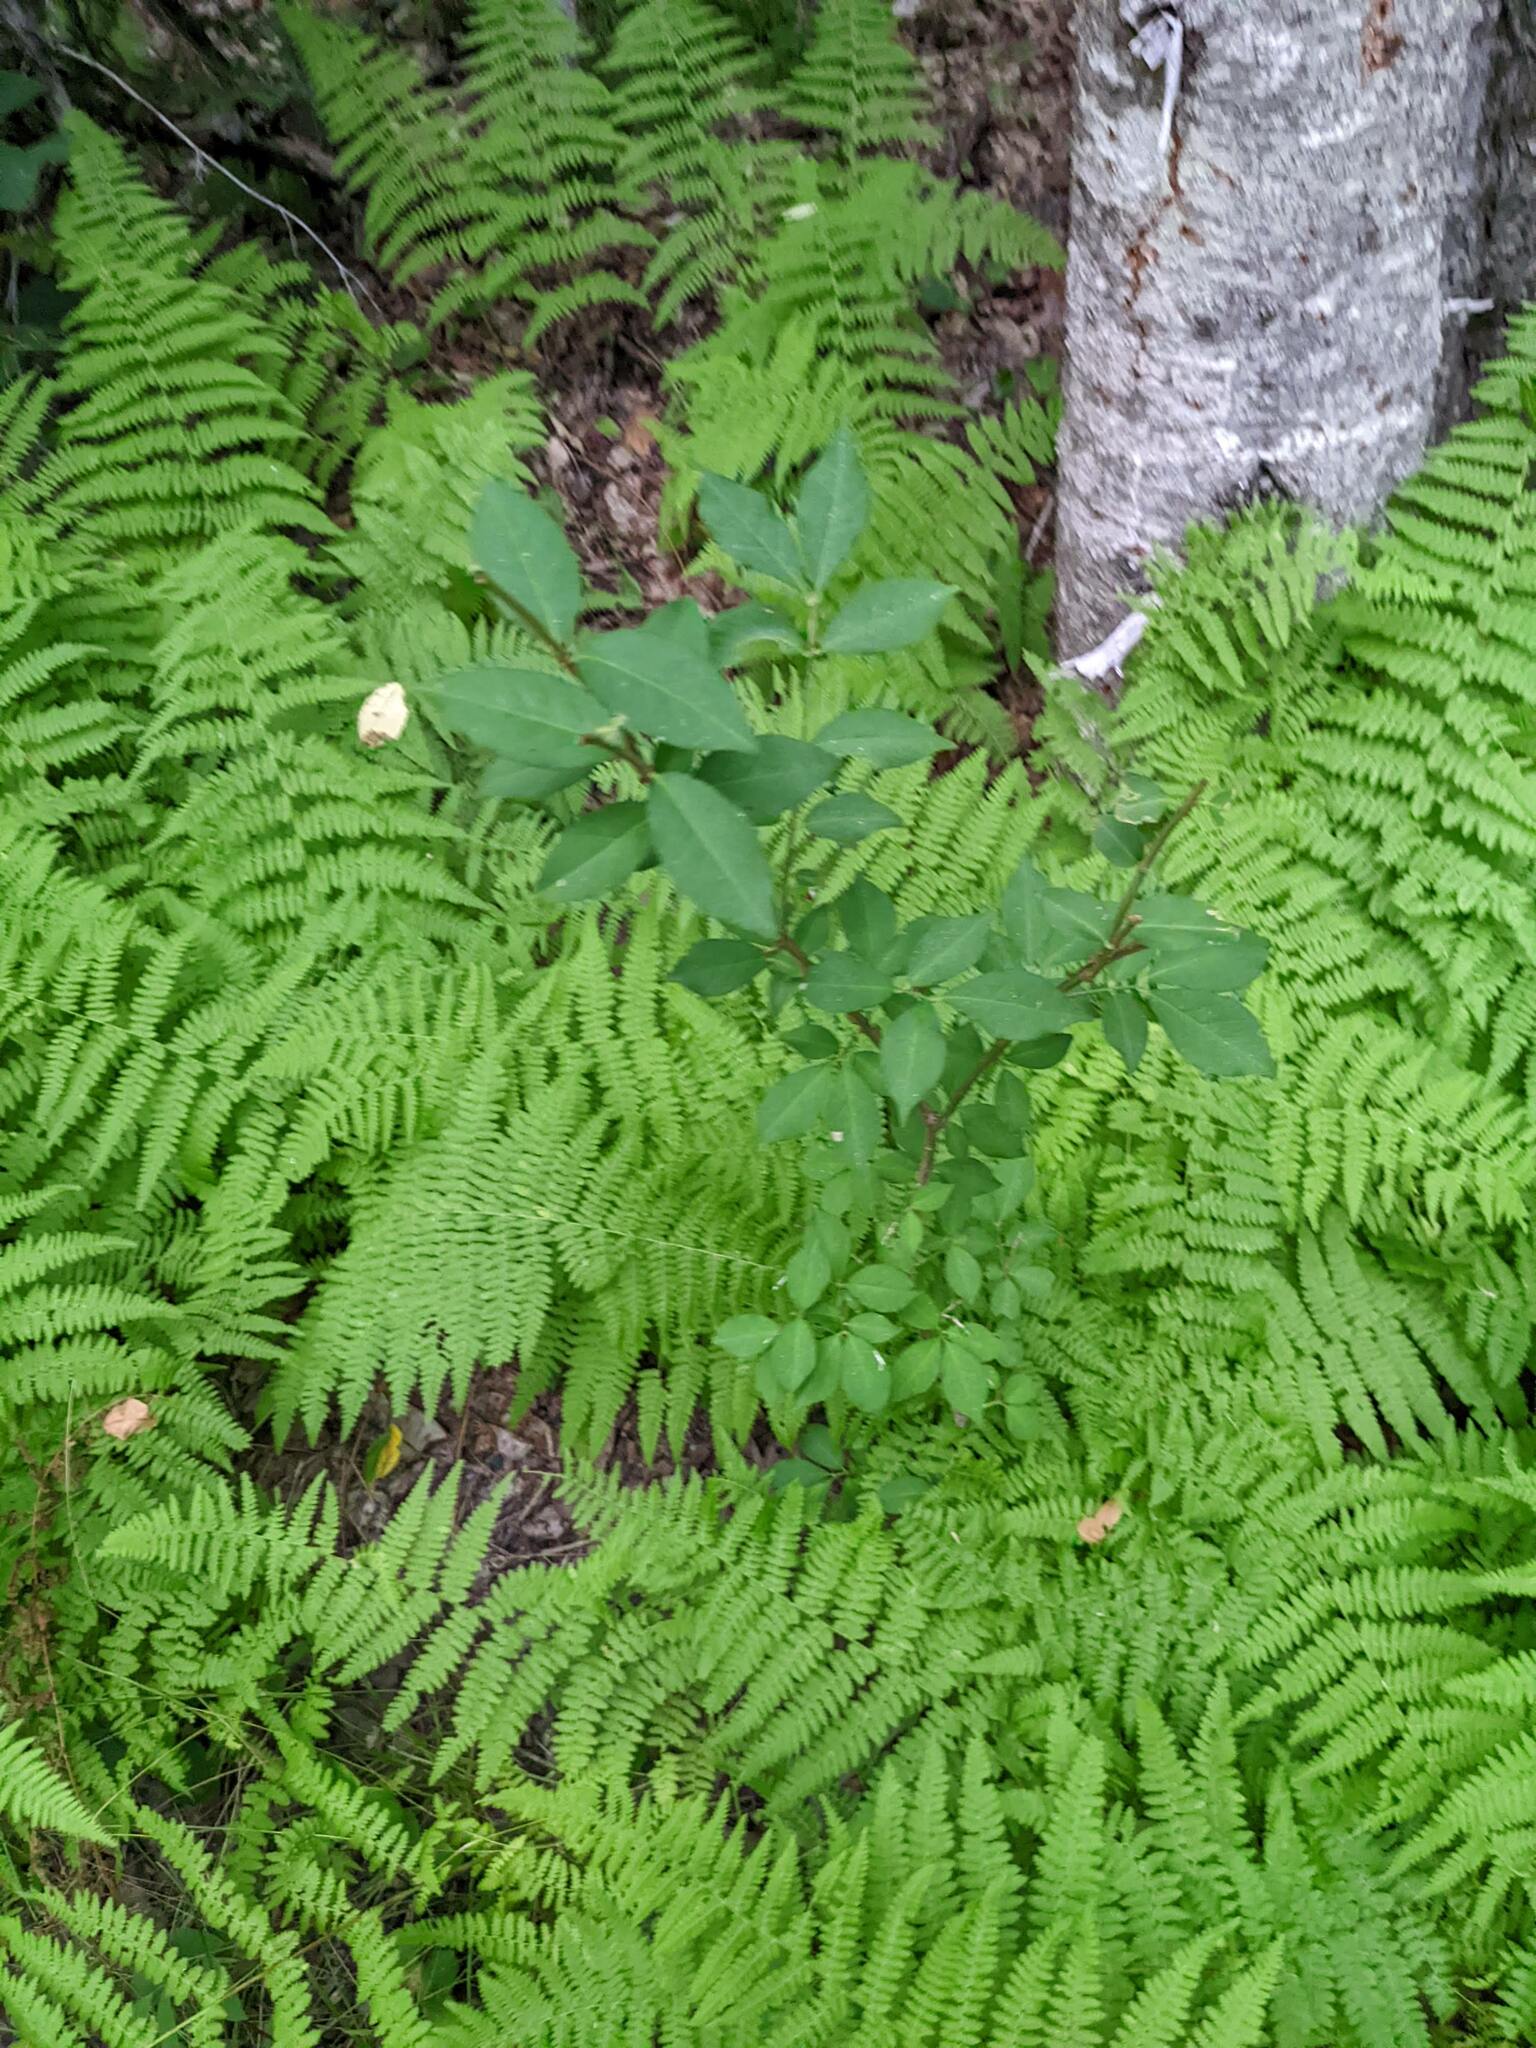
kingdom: Plantae
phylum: Tracheophyta
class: Magnoliopsida
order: Celastrales
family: Celastraceae
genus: Euonymus
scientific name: Euonymus alatus
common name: Winged euonymus
